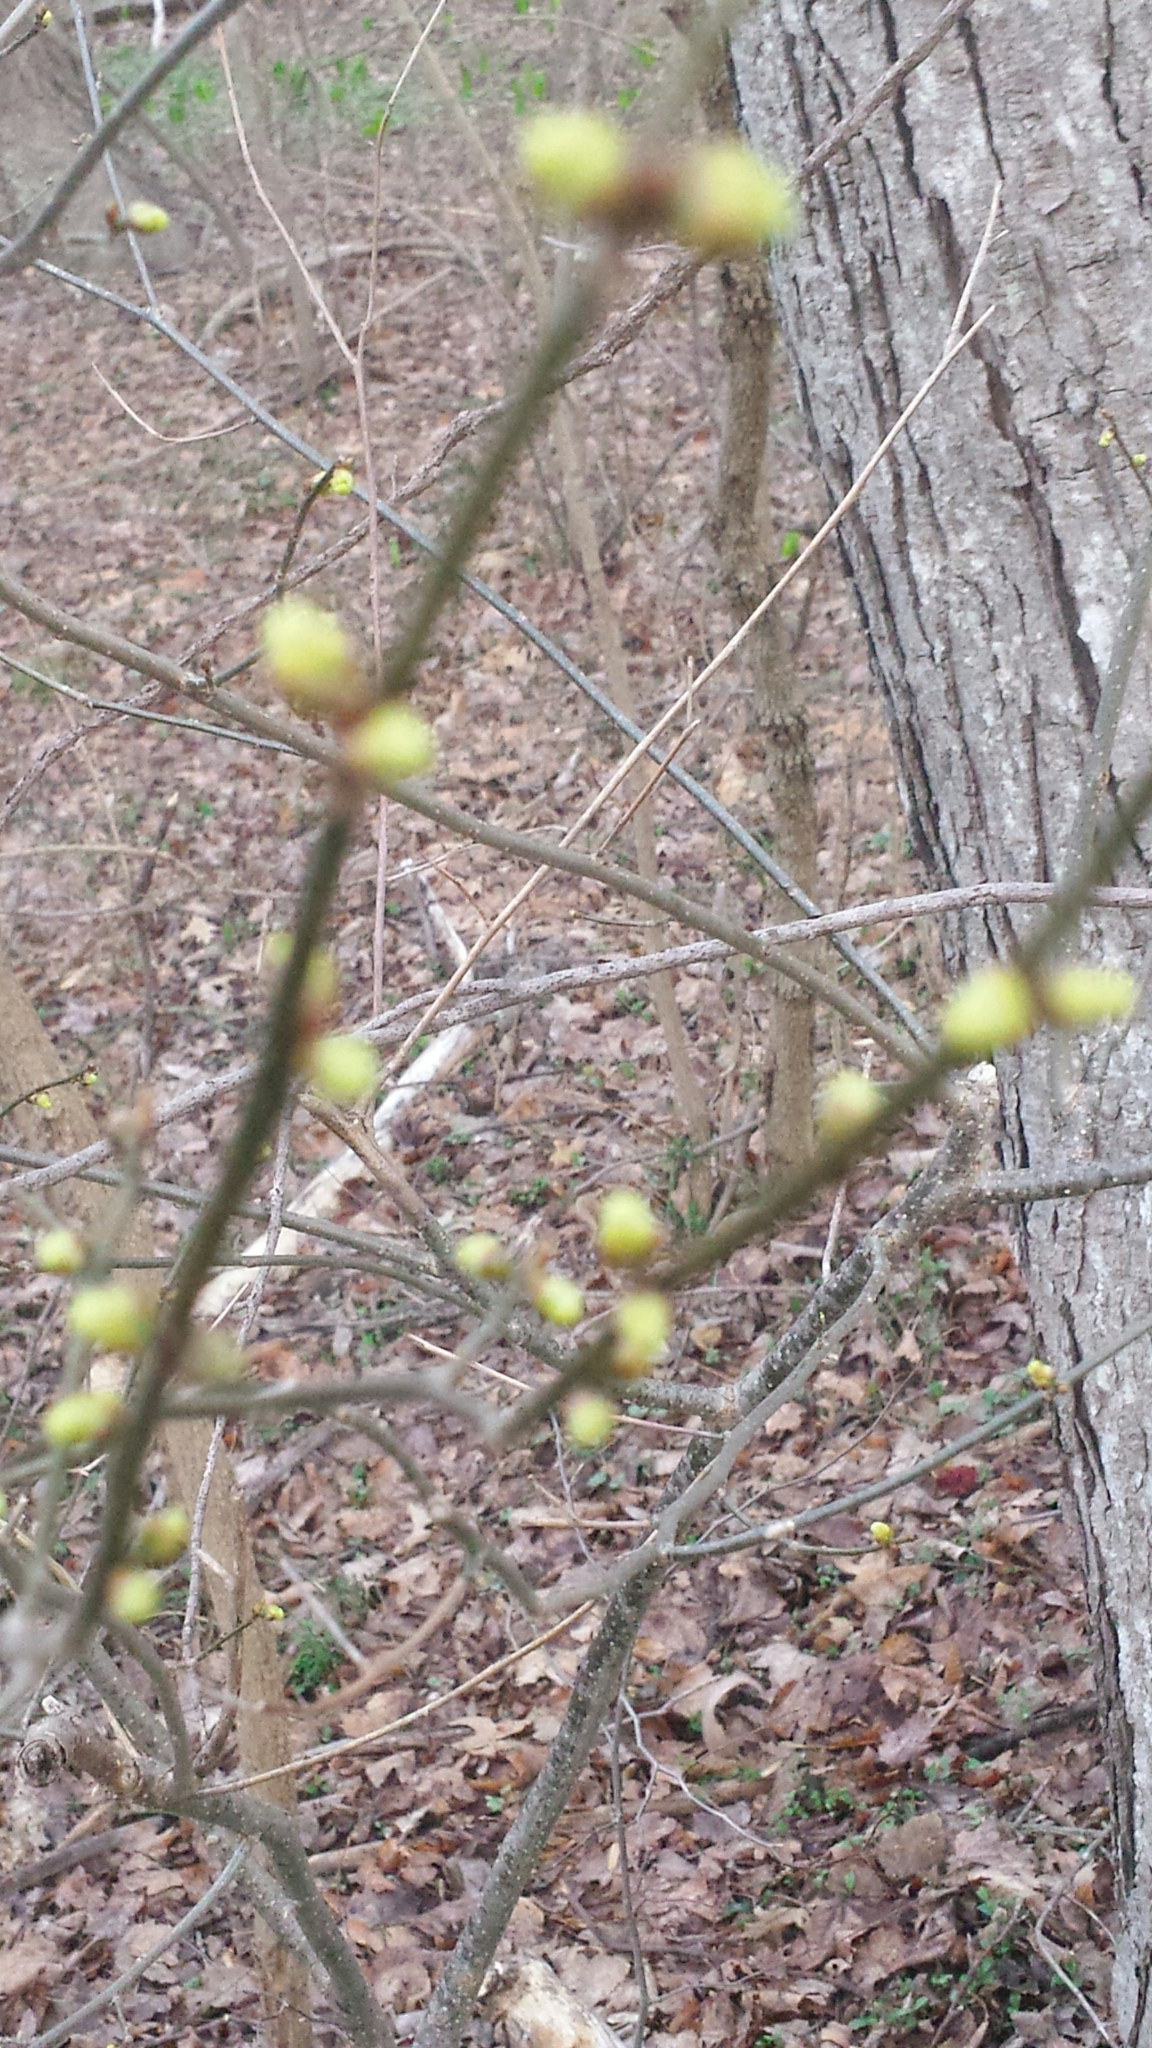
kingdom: Plantae
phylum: Tracheophyta
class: Magnoliopsida
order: Laurales
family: Lauraceae
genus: Lindera
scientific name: Lindera benzoin
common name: Spicebush
